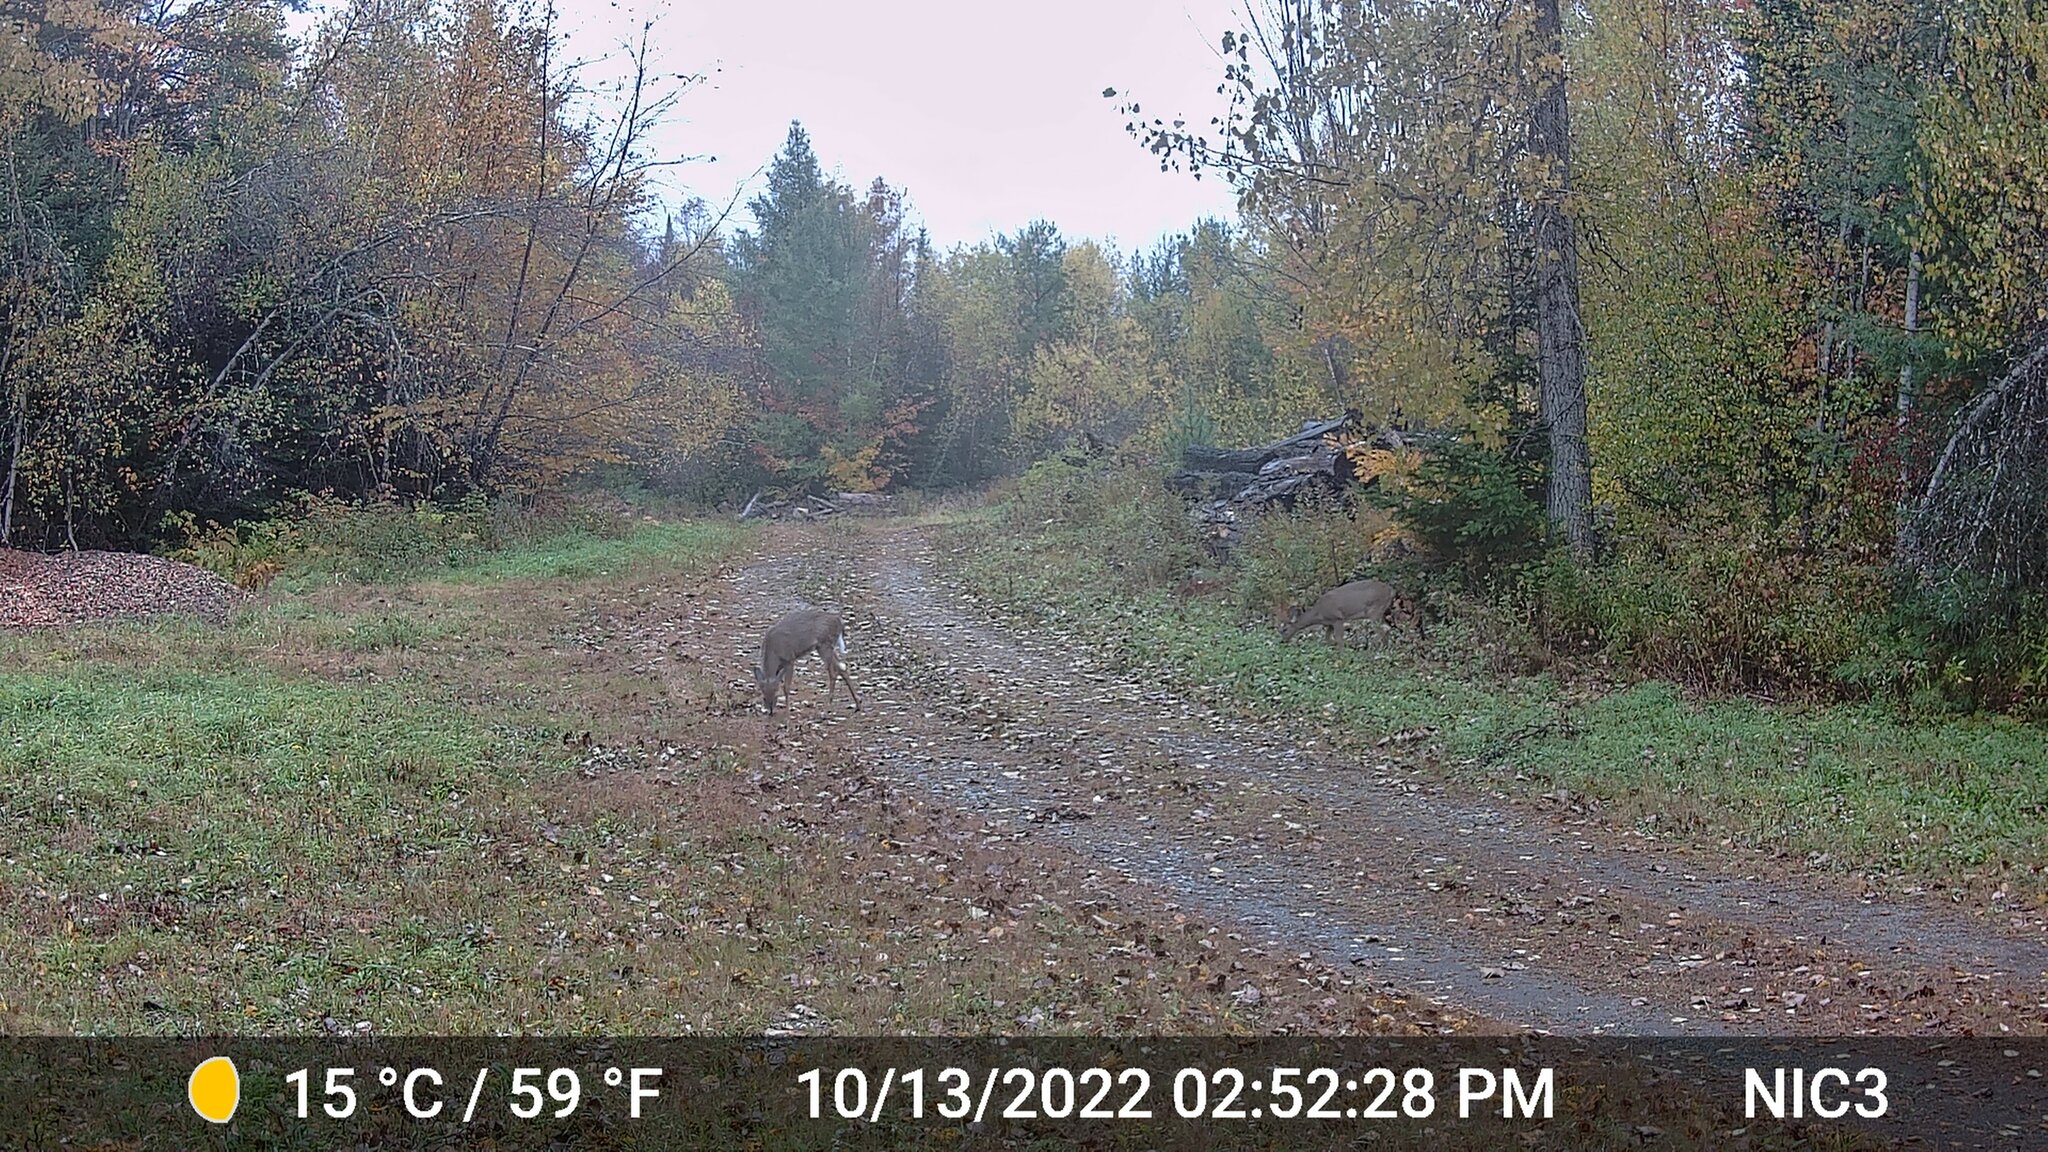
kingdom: Animalia
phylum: Chordata
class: Mammalia
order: Artiodactyla
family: Cervidae
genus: Odocoileus
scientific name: Odocoileus virginianus
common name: White-tailed deer
